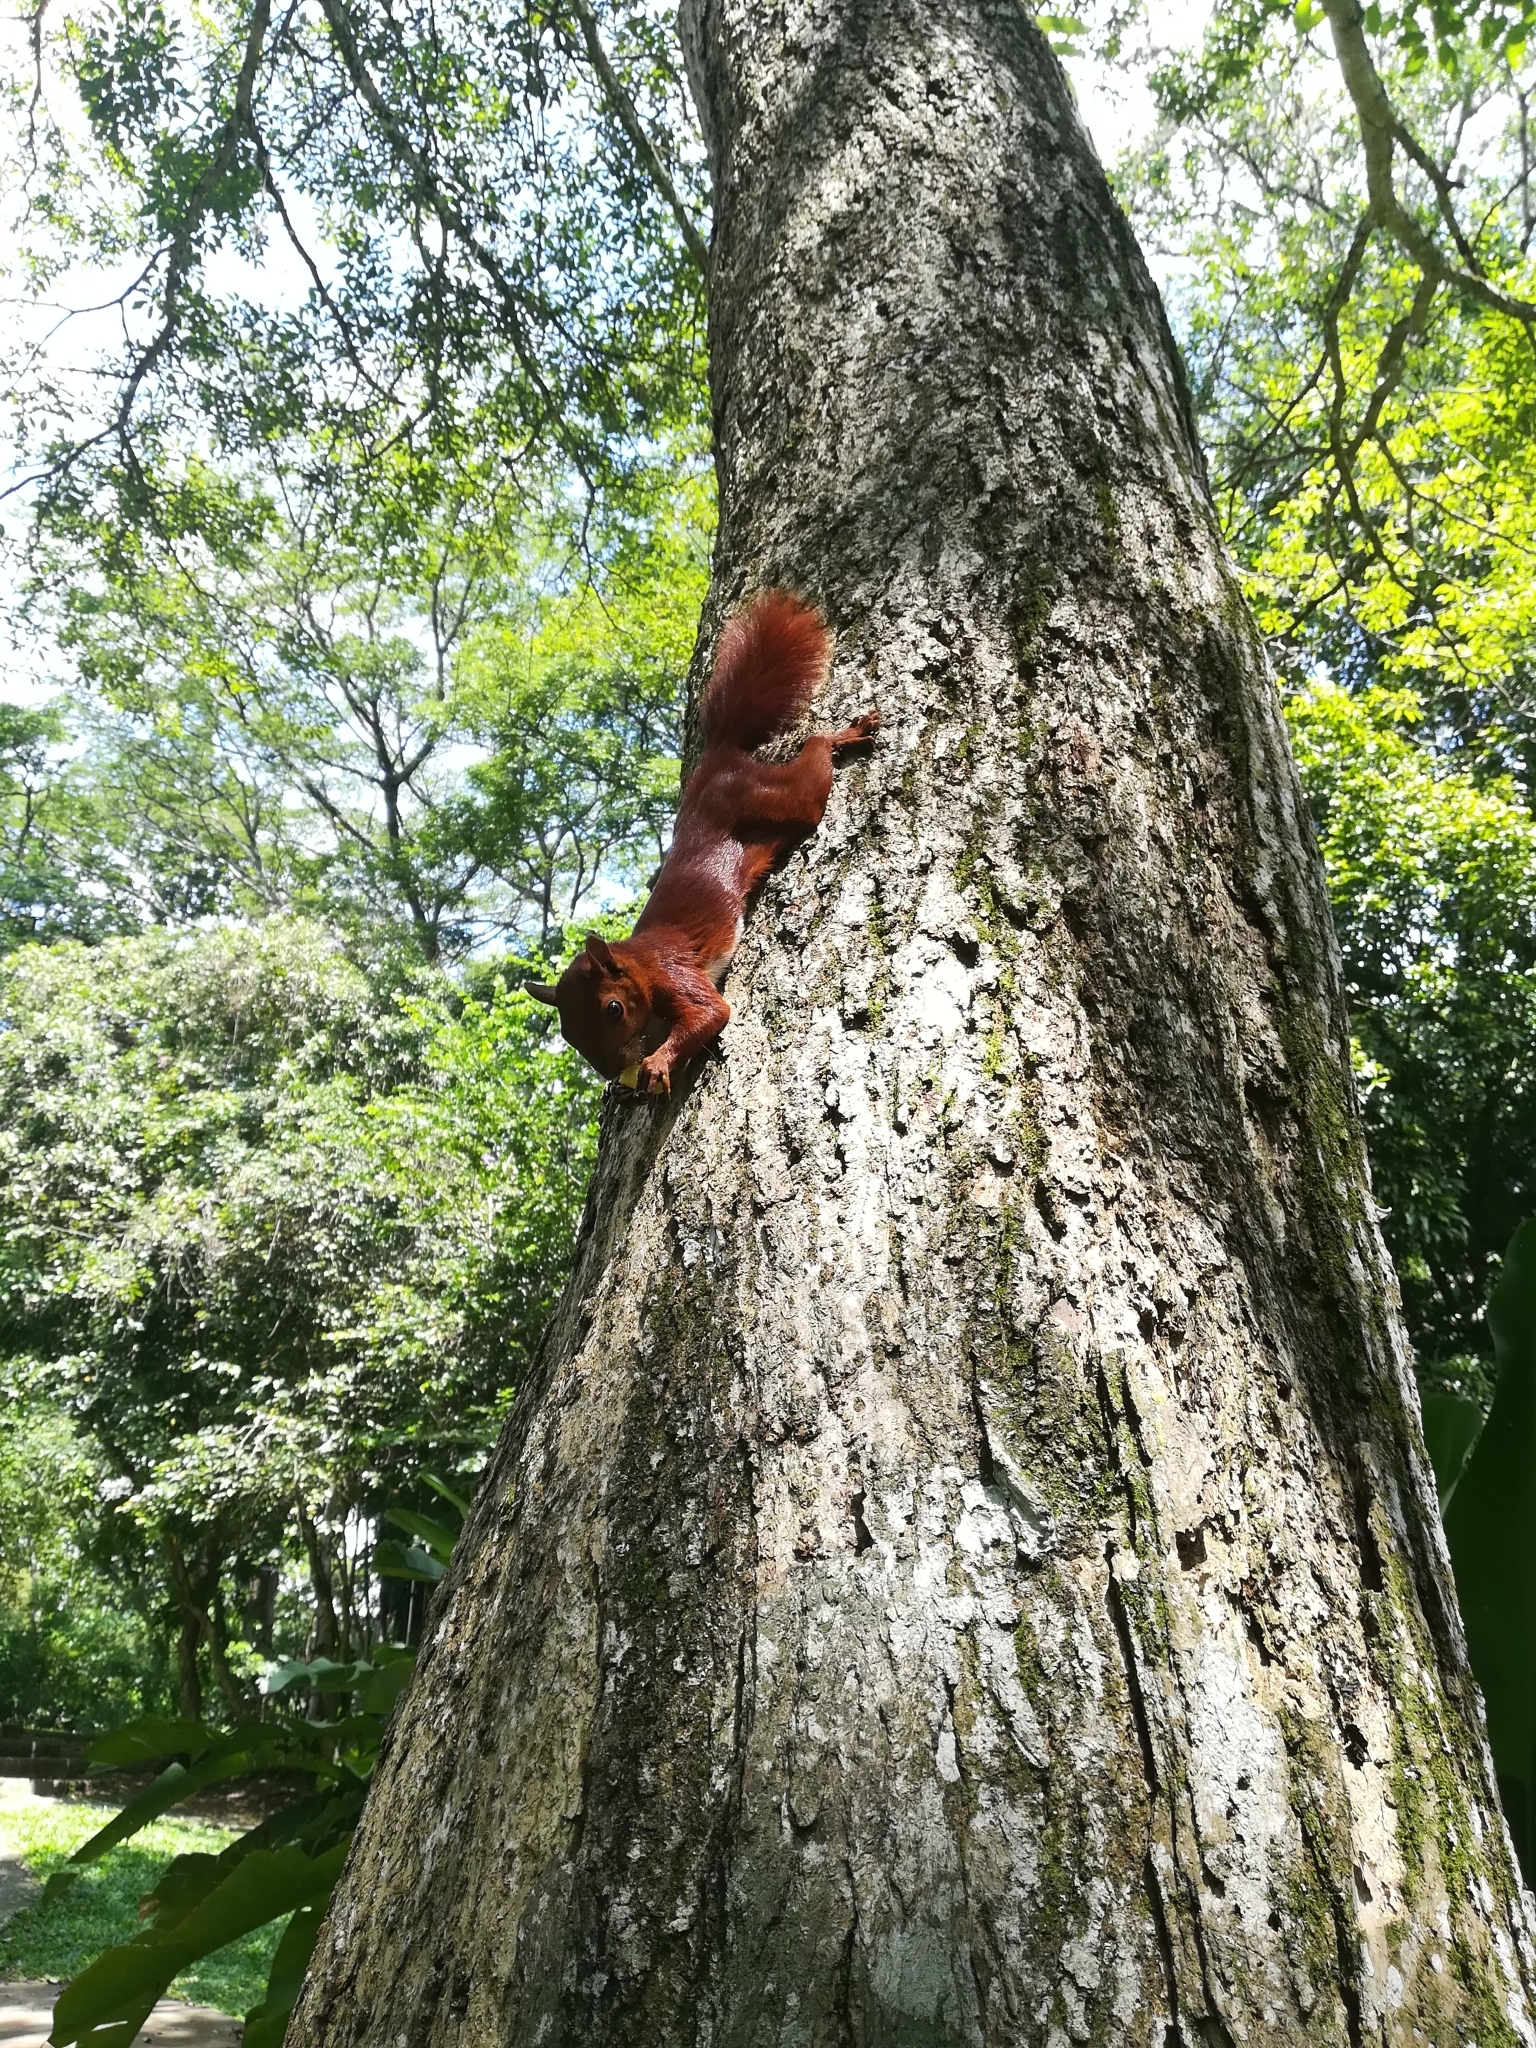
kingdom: Animalia
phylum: Chordata
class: Mammalia
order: Rodentia
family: Sciuridae
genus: Sciurus
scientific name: Sciurus granatensis
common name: Red-tailed squirrel
